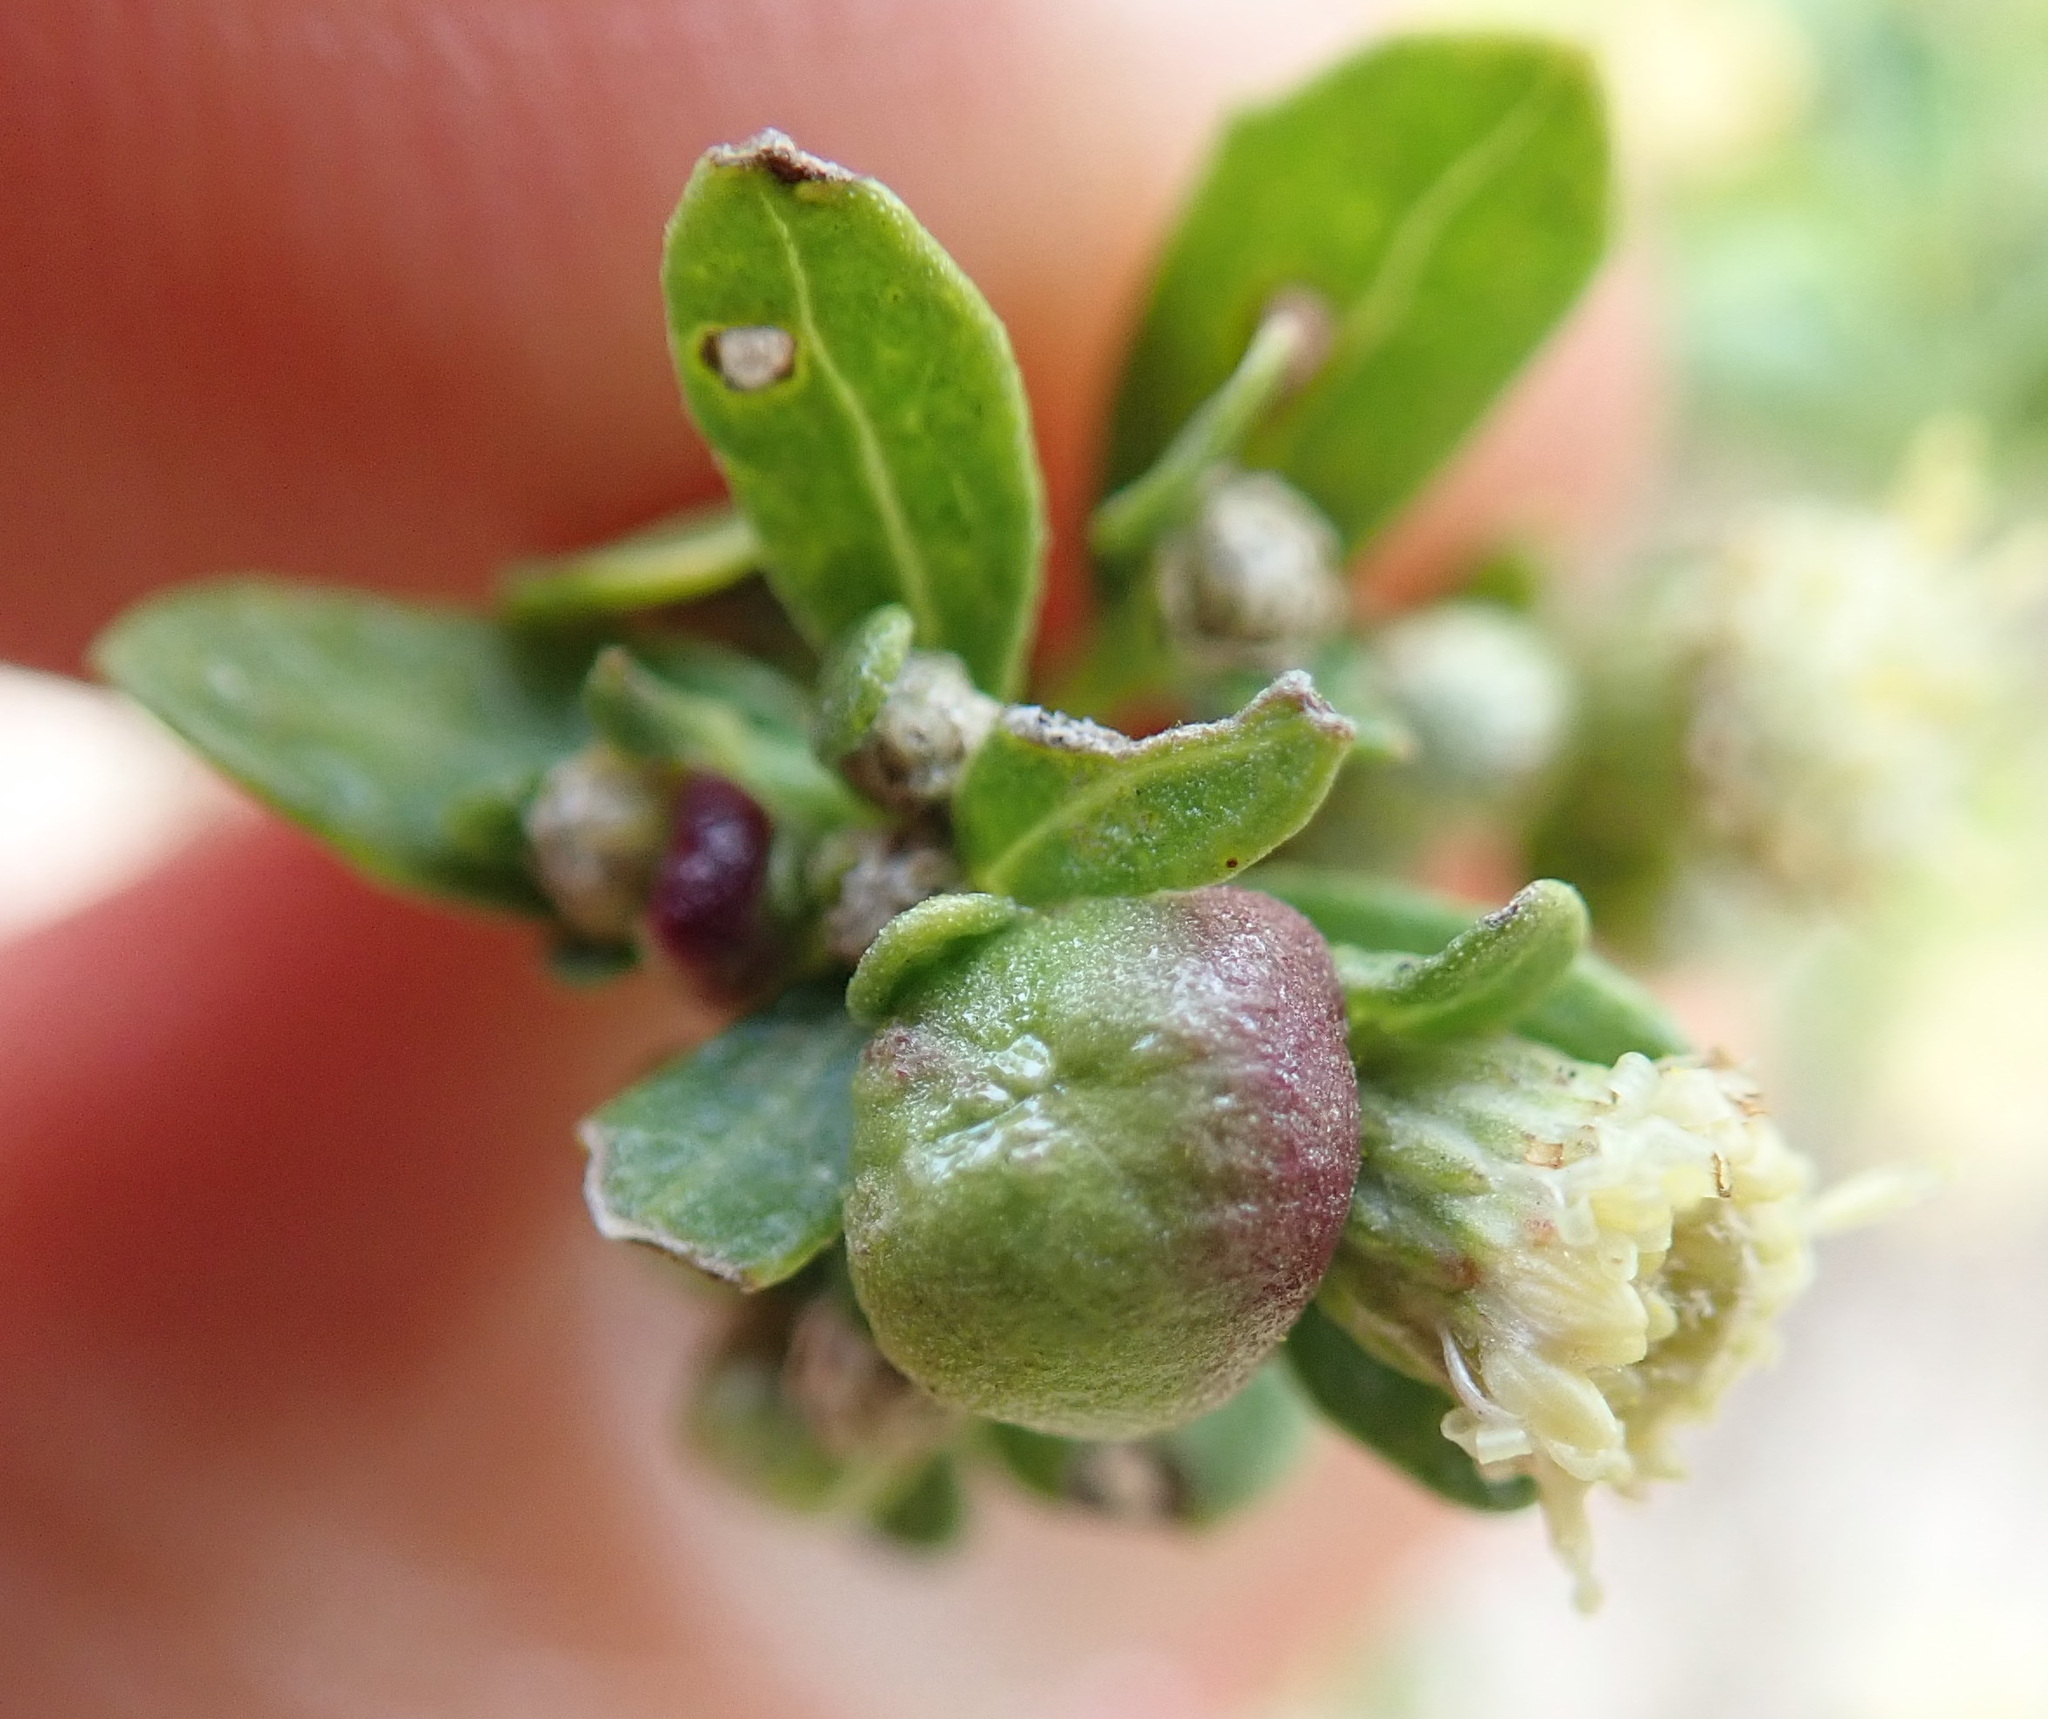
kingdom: Animalia
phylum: Arthropoda
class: Insecta
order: Diptera
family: Cecidomyiidae
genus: Rhopalomyia
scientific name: Rhopalomyia californica
